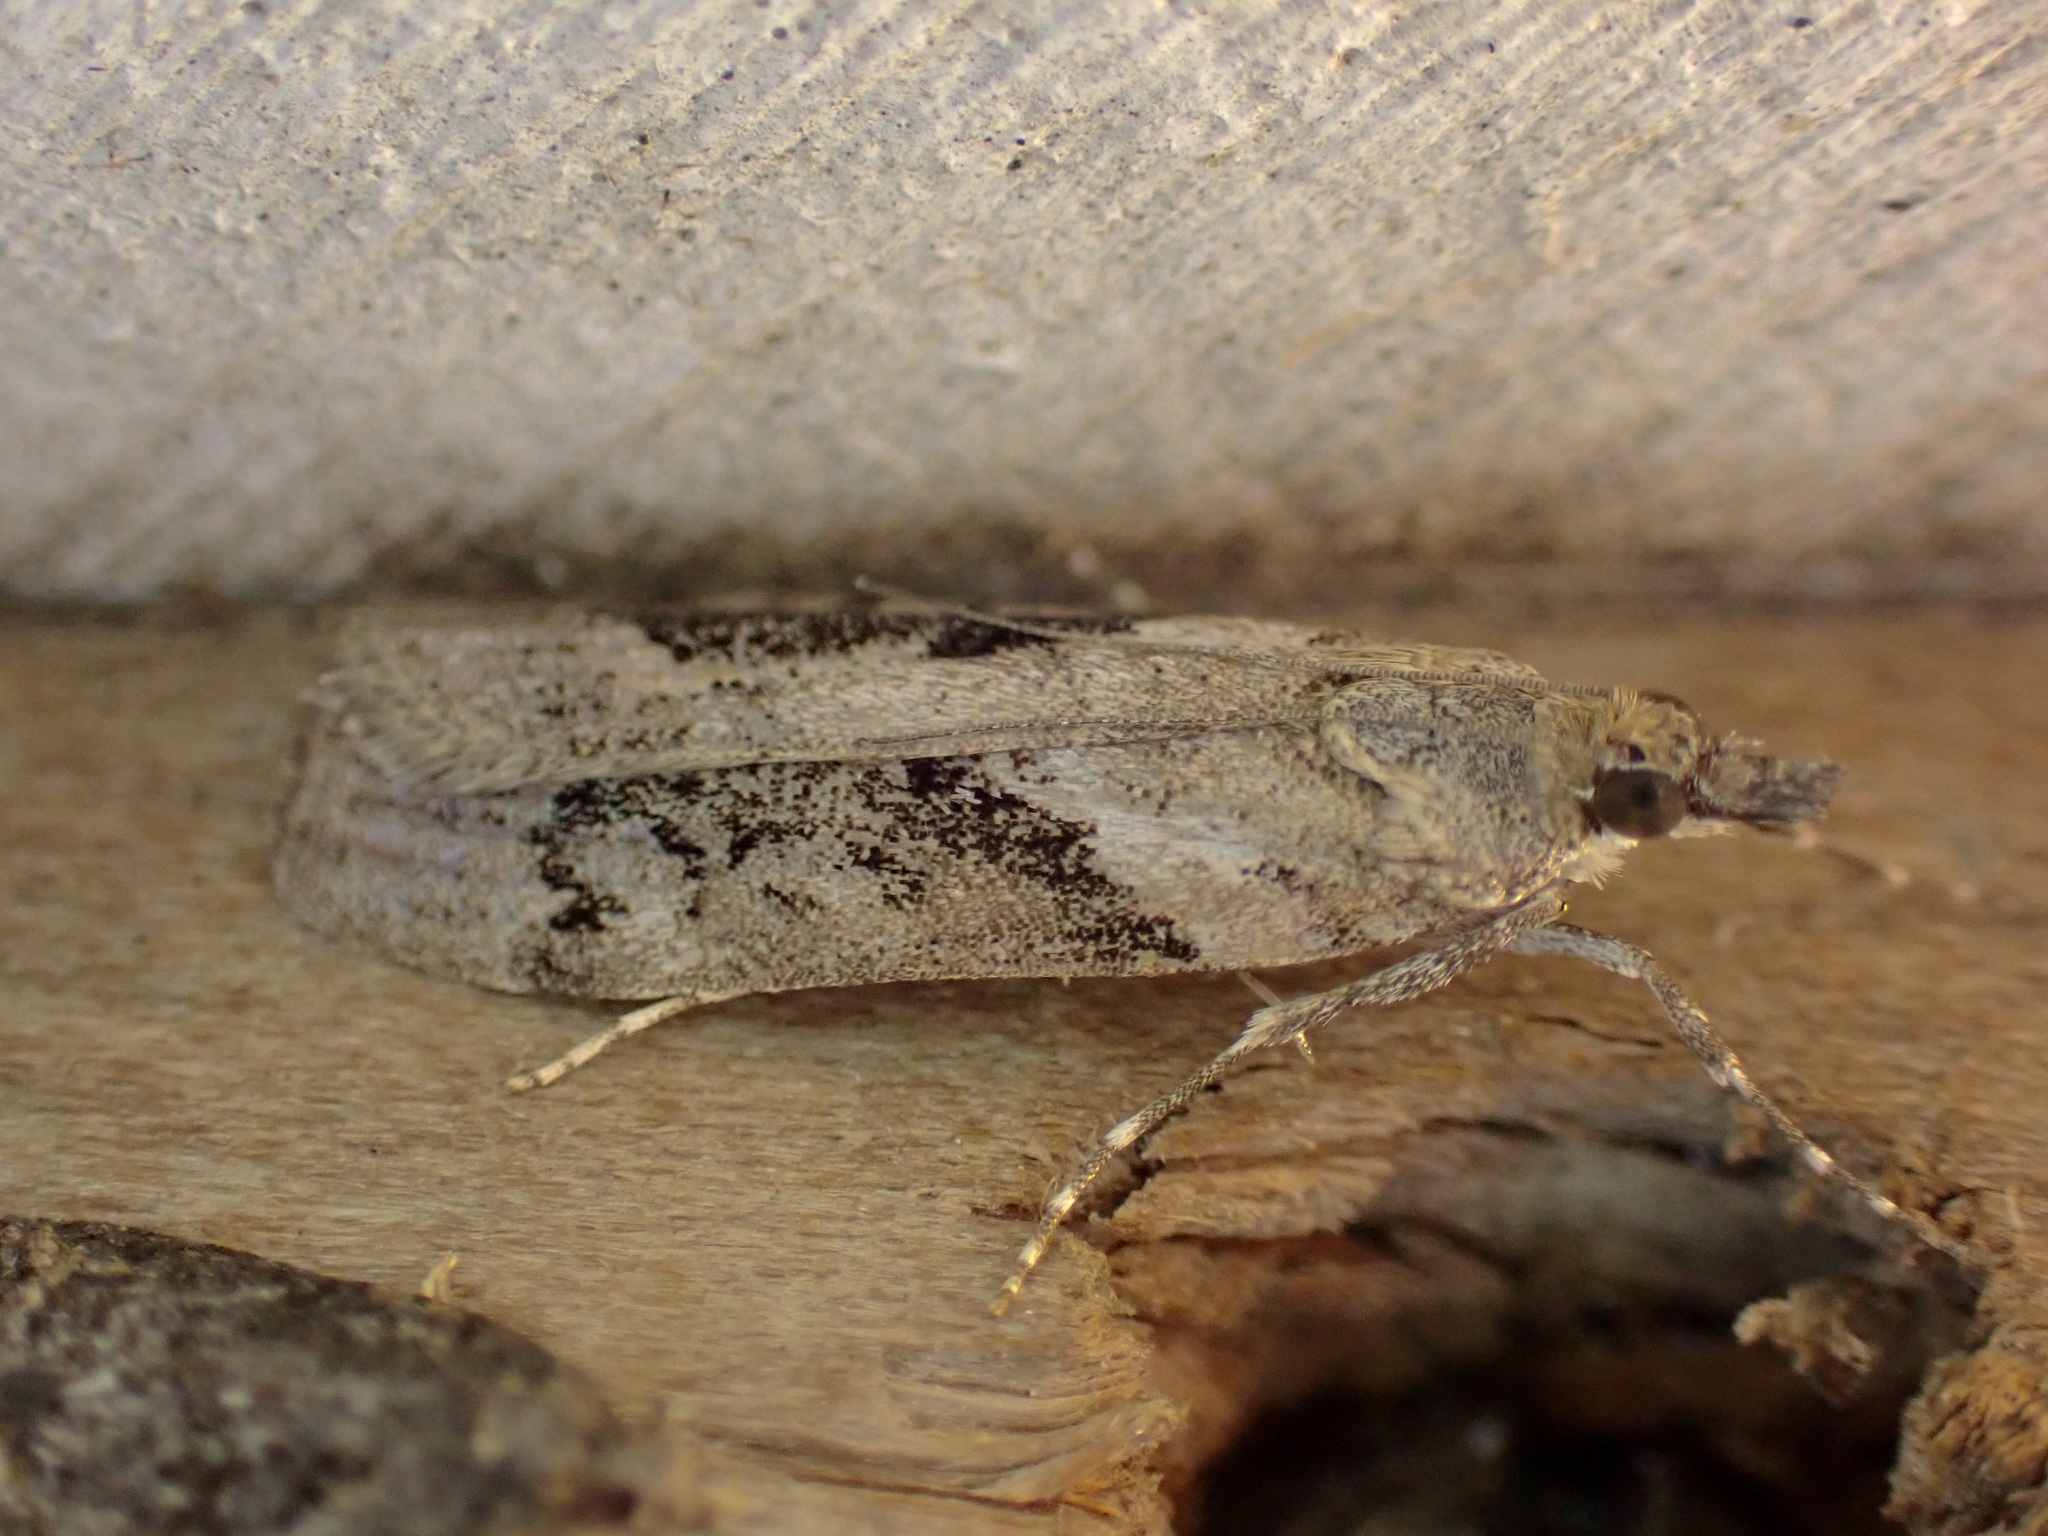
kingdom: Animalia
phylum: Arthropoda
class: Insecta
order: Lepidoptera
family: Crambidae
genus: Eudonia
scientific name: Eudonia submarginalis
